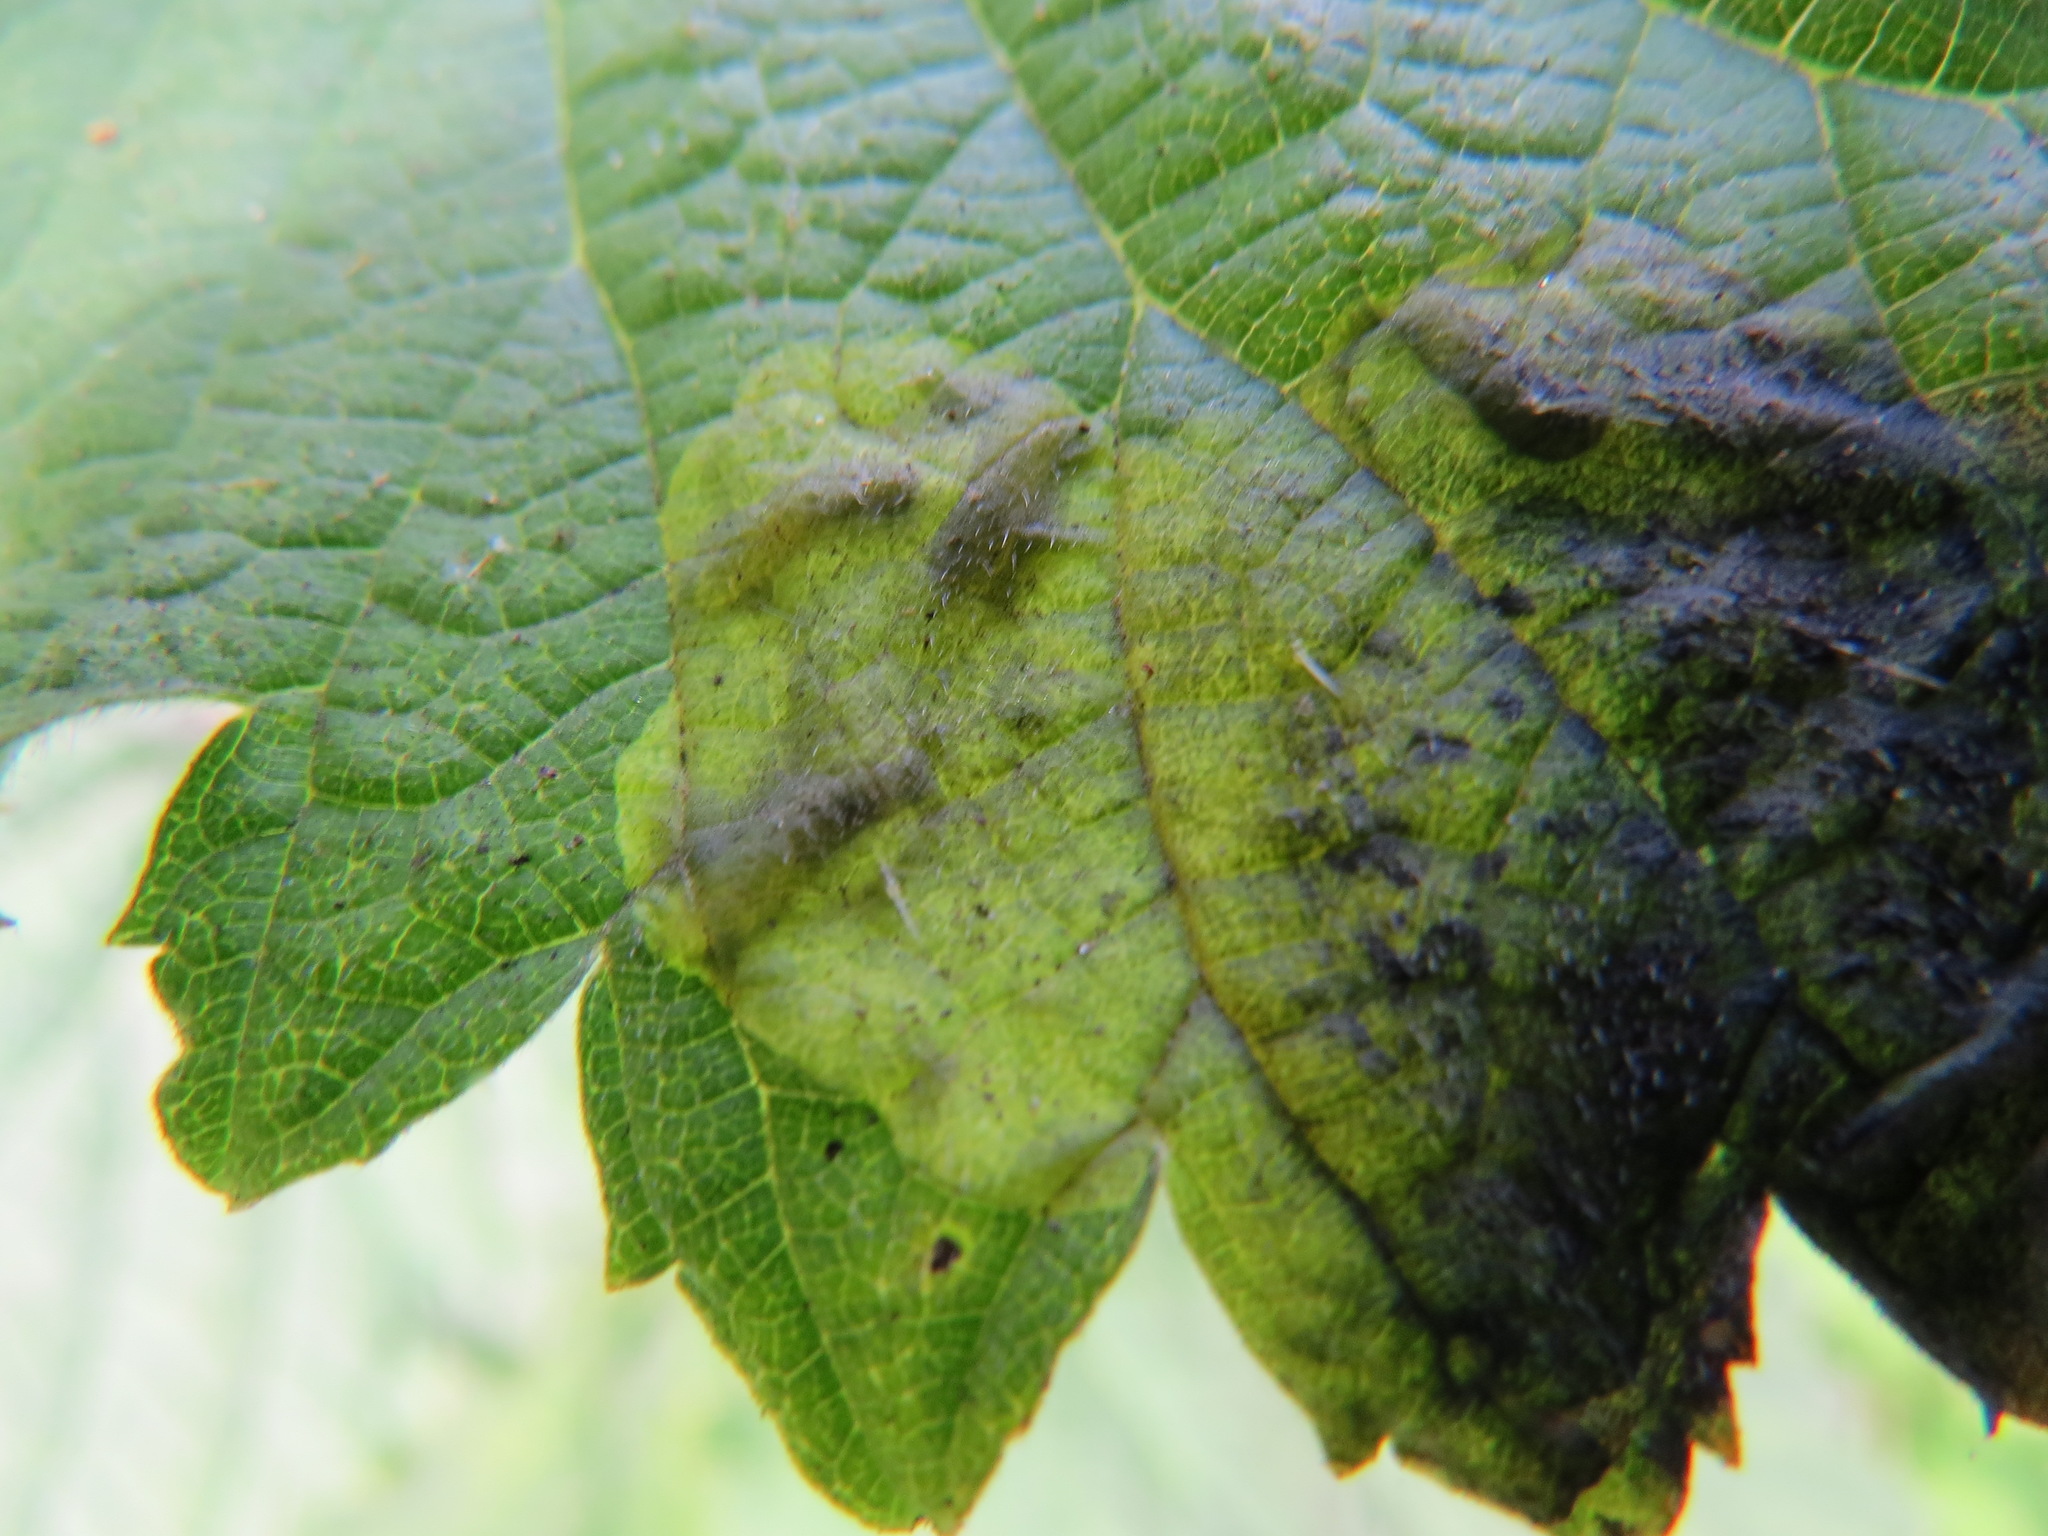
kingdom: Animalia
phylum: Arthropoda
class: Insecta
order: Diptera
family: Agromyzidae
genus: Agromyza
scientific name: Agromyza pseudoreptans
